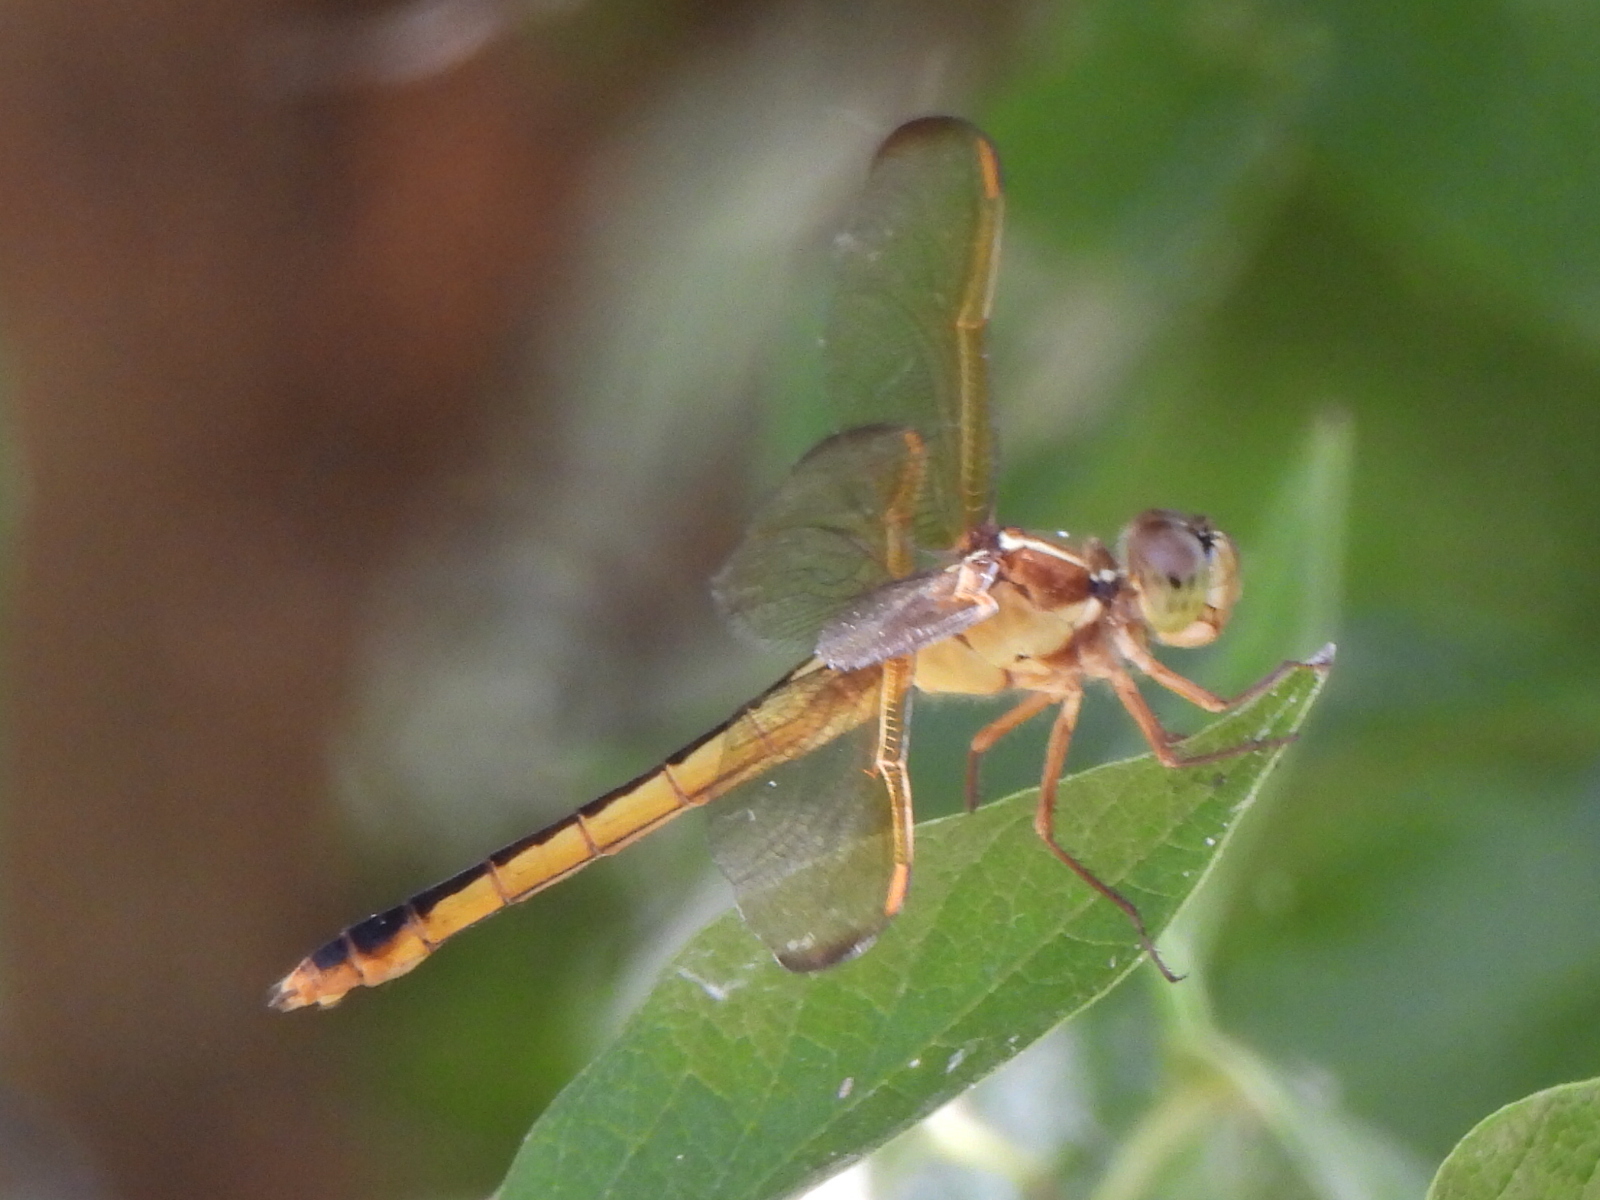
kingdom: Animalia
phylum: Arthropoda
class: Insecta
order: Odonata
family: Libellulidae
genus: Libellula
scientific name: Libellula needhami
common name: Needham's skimmer
